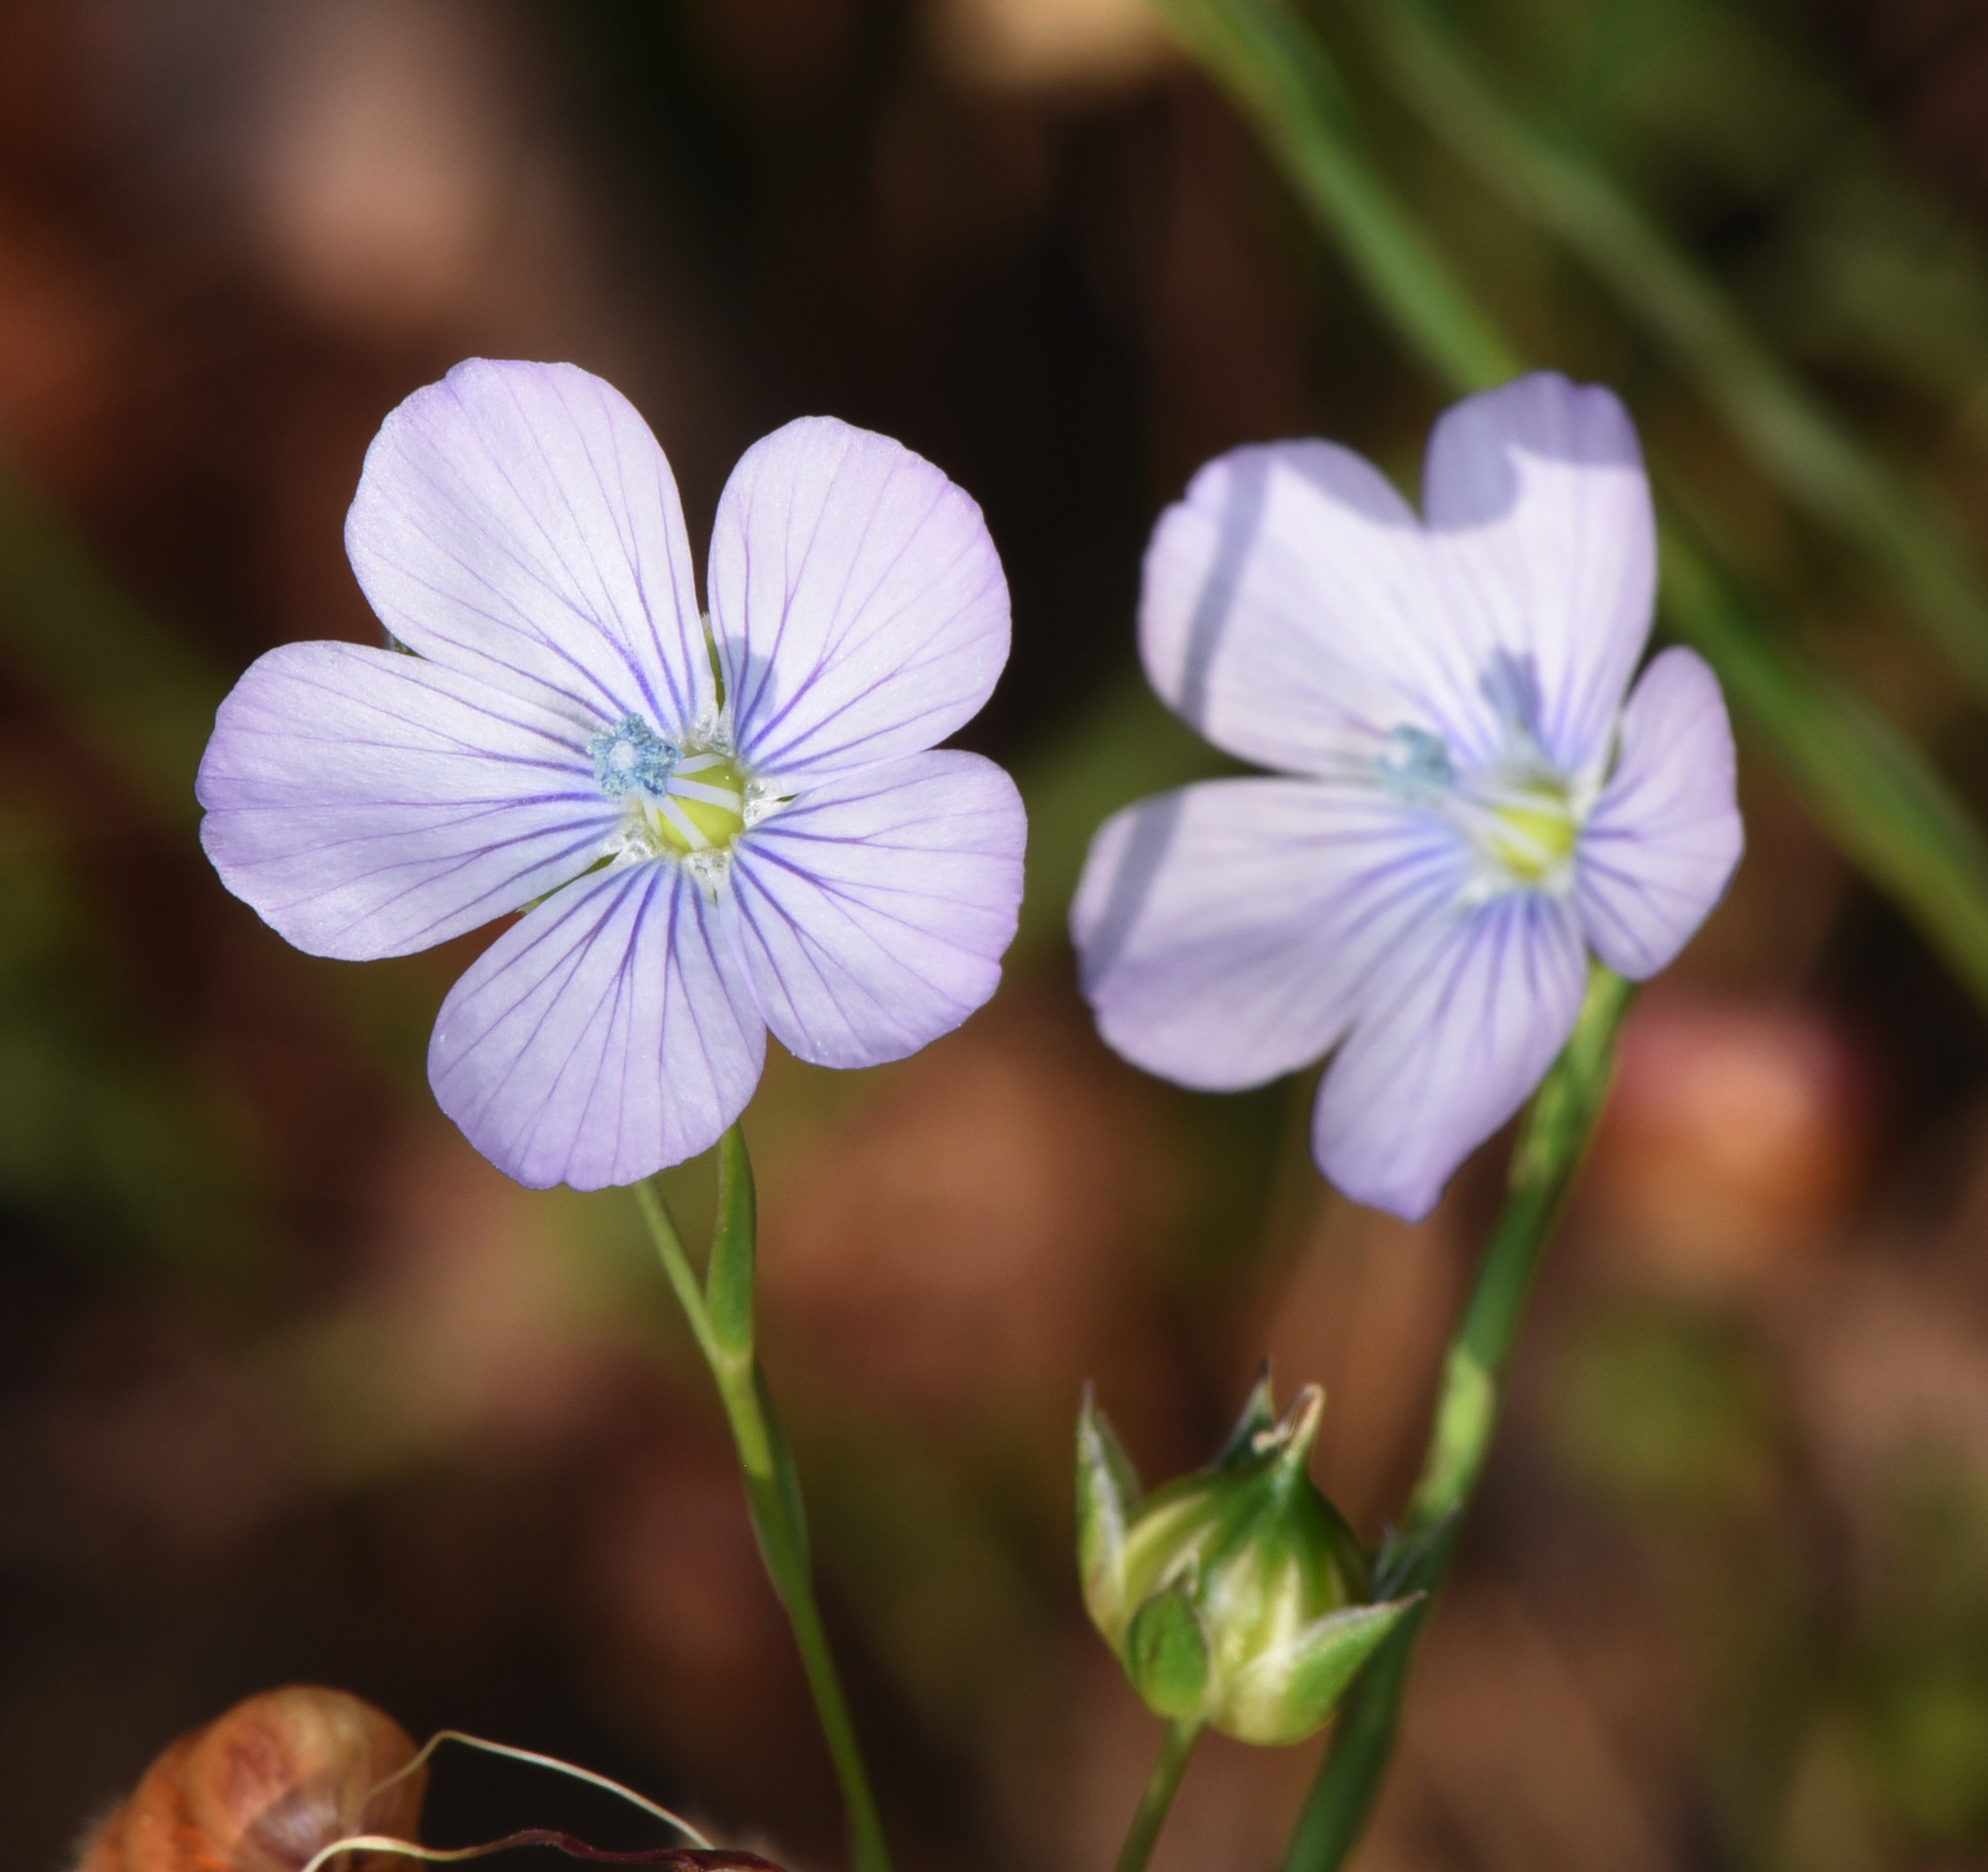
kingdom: Plantae
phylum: Tracheophyta
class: Magnoliopsida
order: Malpighiales
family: Linaceae
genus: Linum
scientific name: Linum bienne
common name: Pale flax
